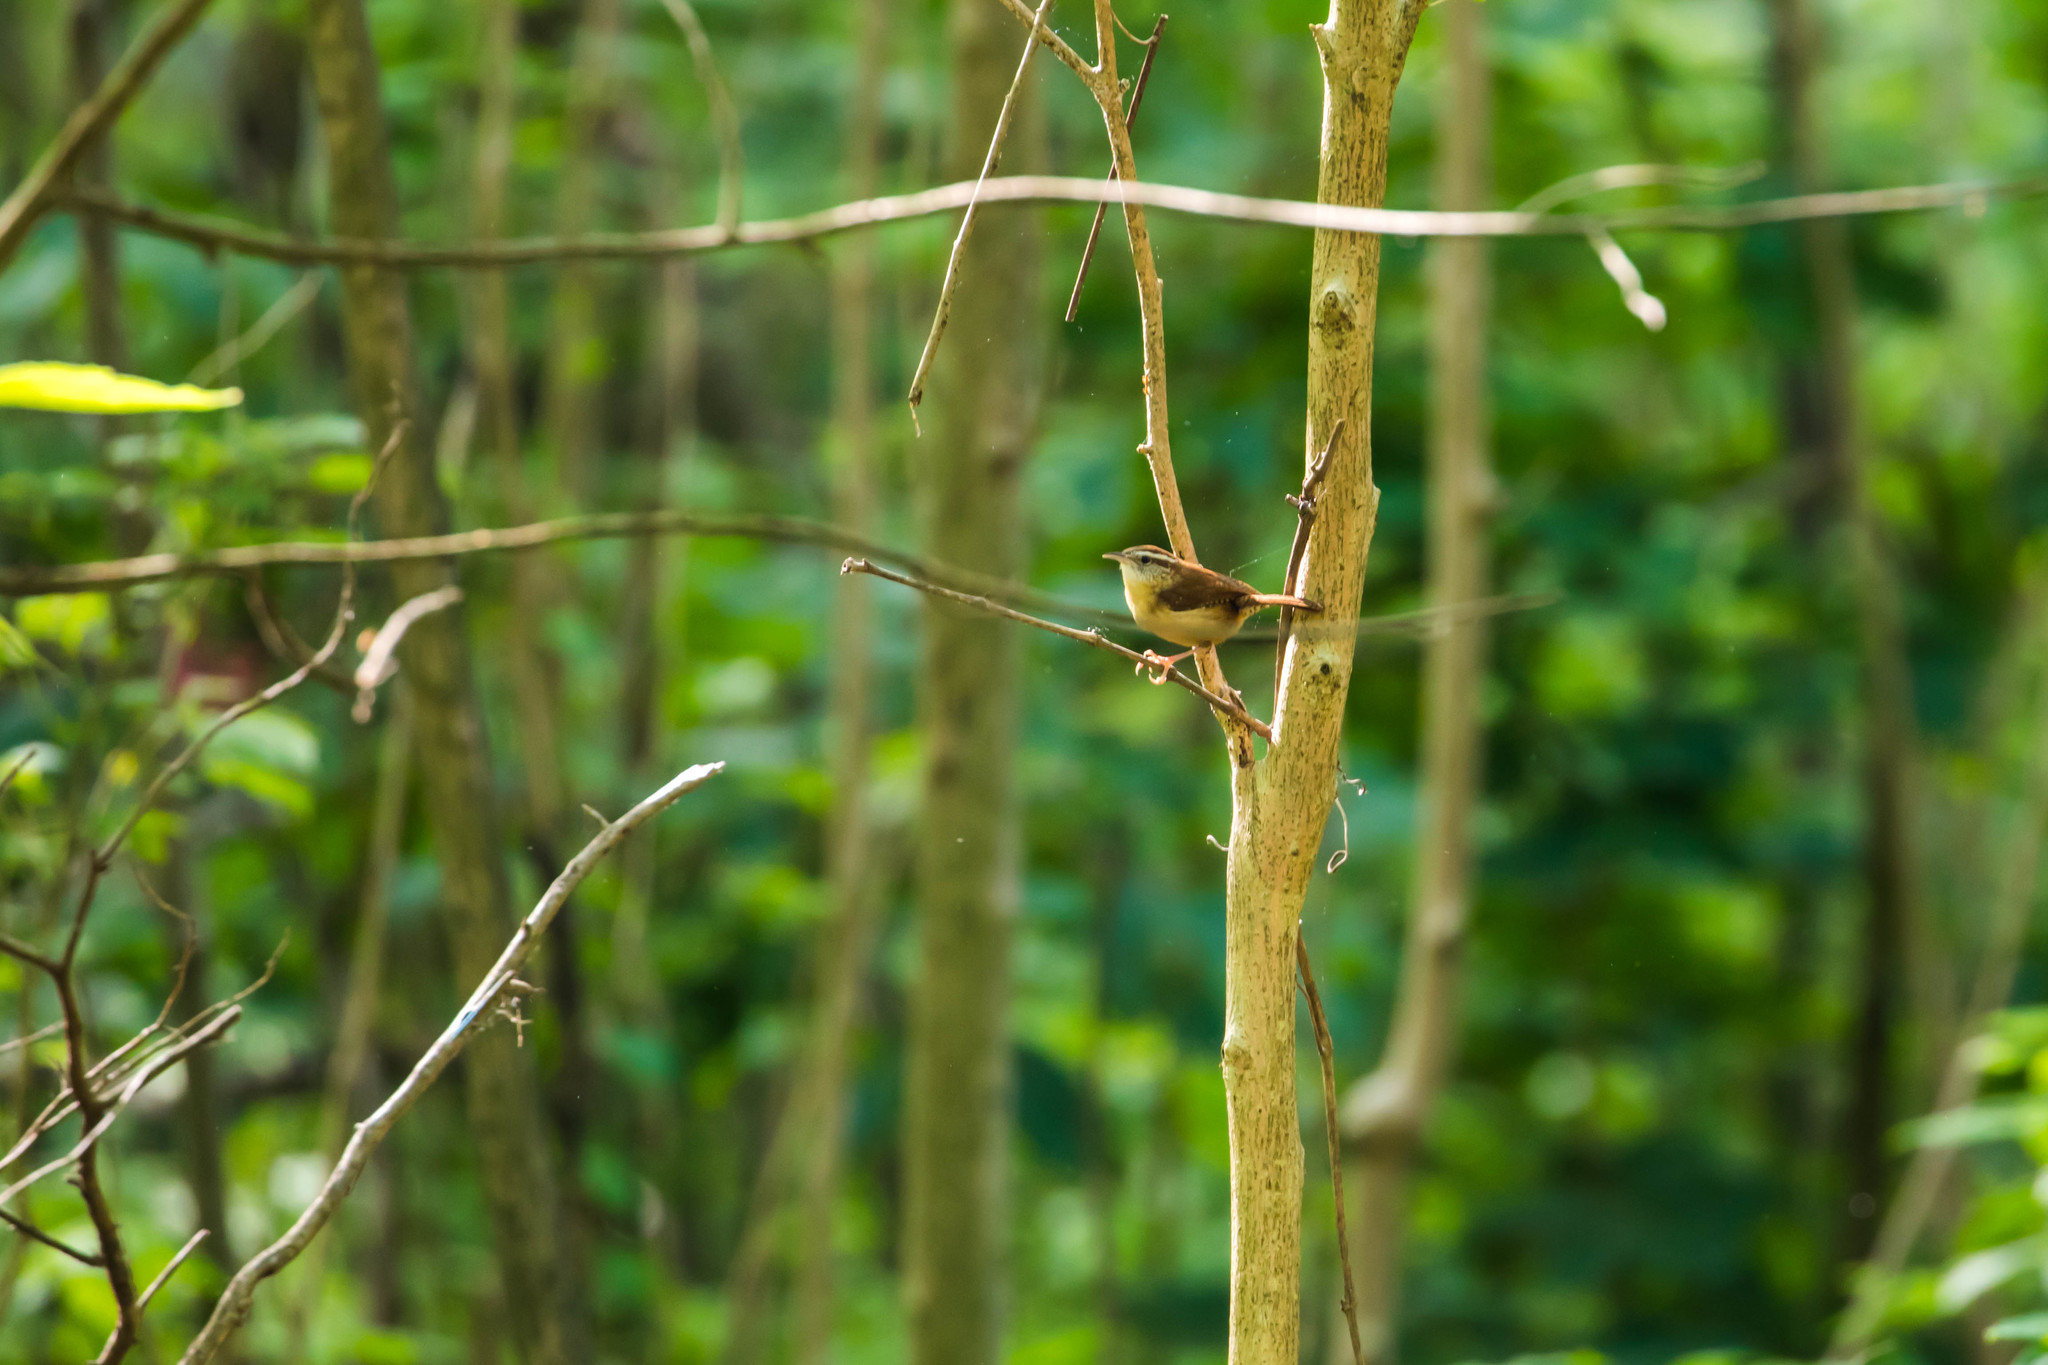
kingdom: Animalia
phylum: Chordata
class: Aves
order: Passeriformes
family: Troglodytidae
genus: Thryothorus
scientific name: Thryothorus ludovicianus
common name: Carolina wren
